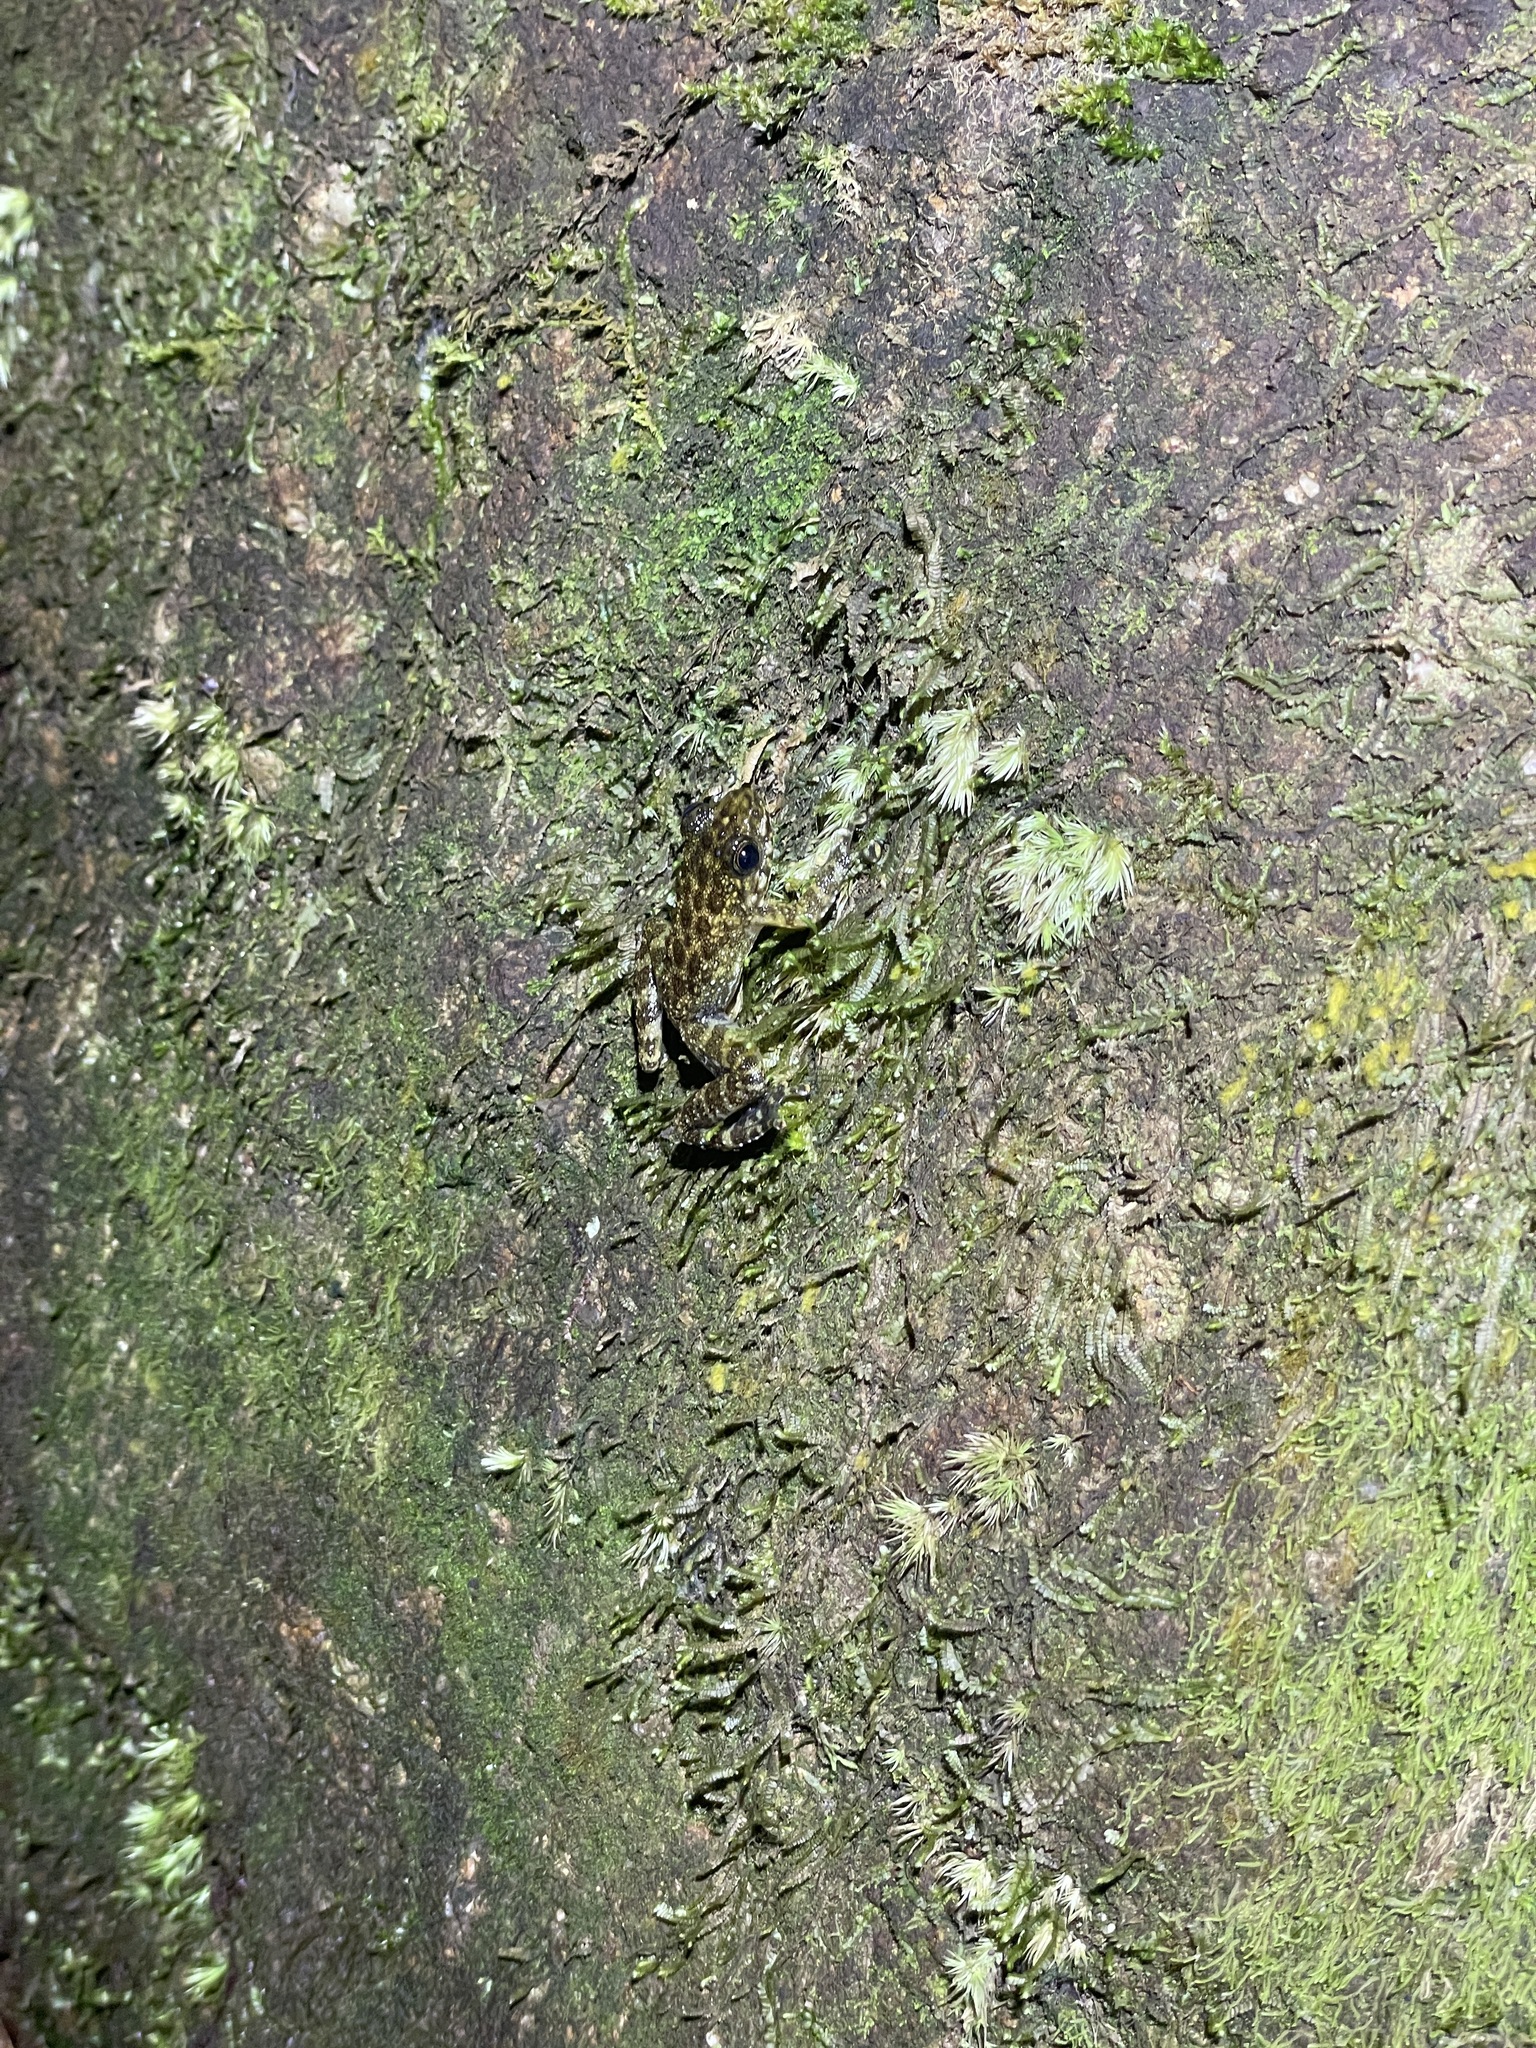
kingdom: Animalia
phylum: Chordata
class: Amphibia
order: Anura
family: Ranidae
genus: Amolops
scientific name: Amolops hongkongensis
